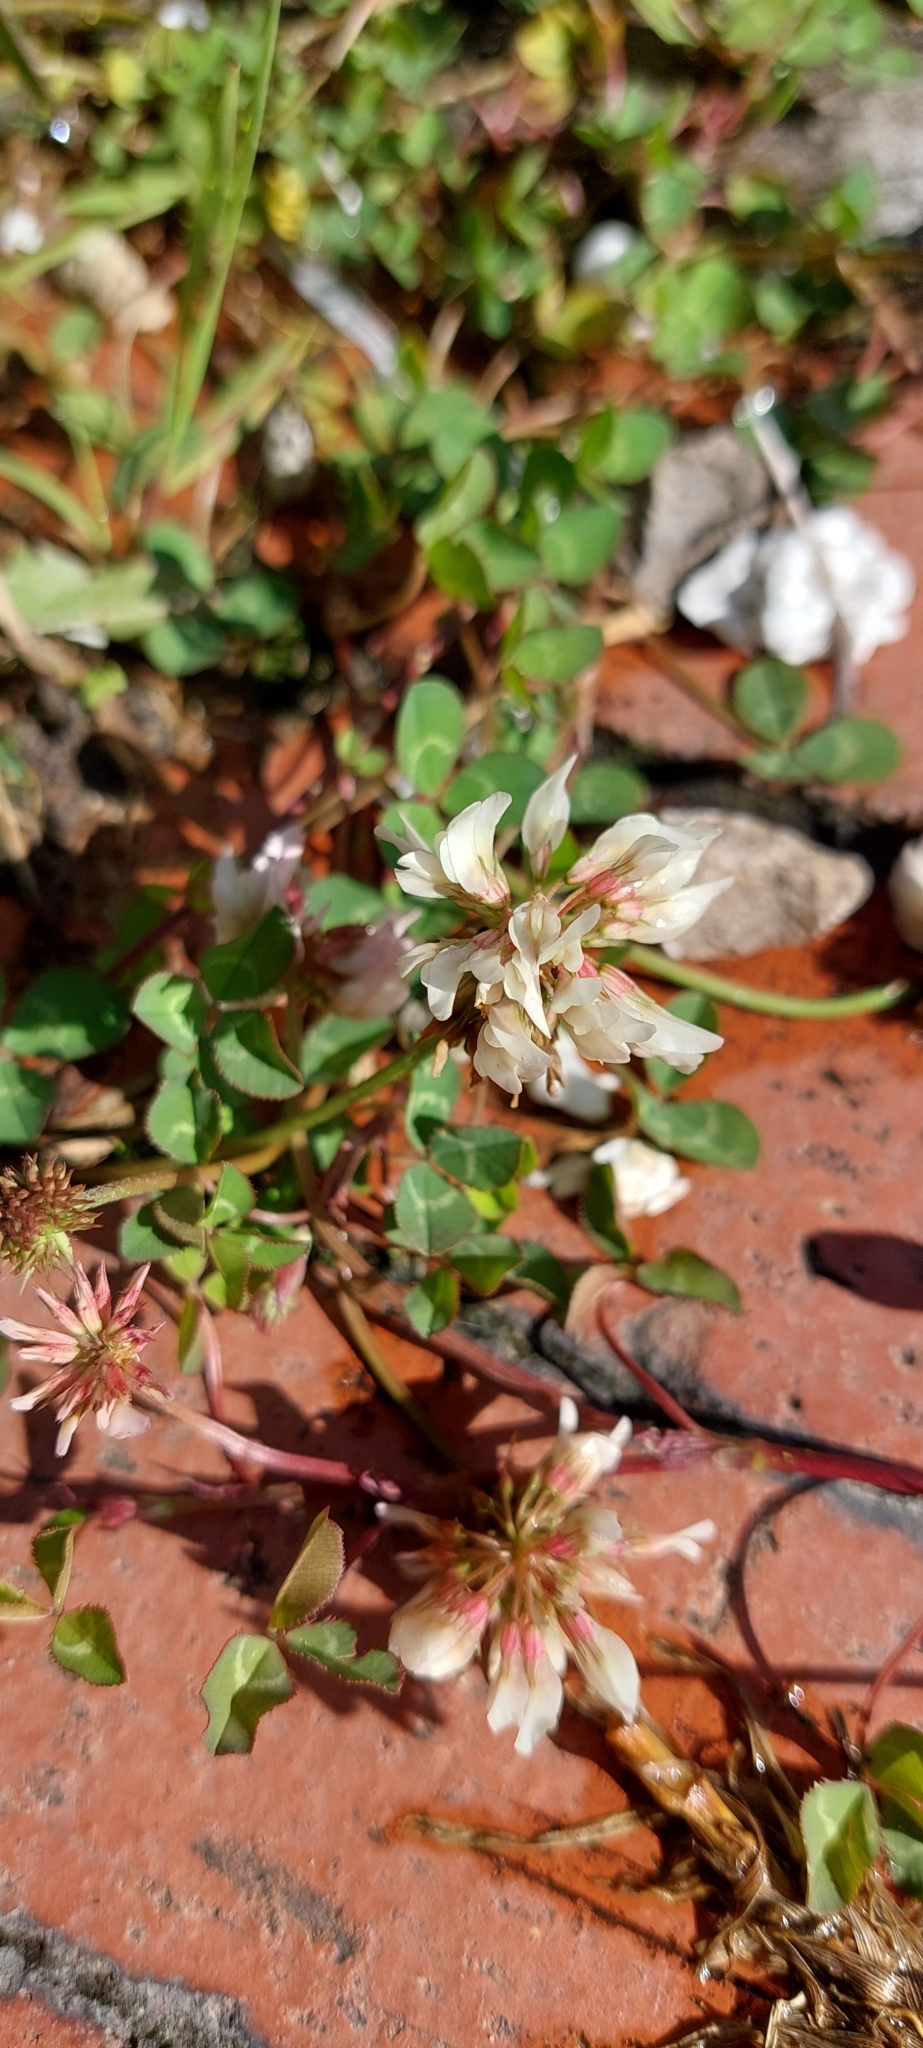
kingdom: Plantae
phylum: Tracheophyta
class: Magnoliopsida
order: Fabales
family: Fabaceae
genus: Trifolium
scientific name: Trifolium repens
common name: White clover
